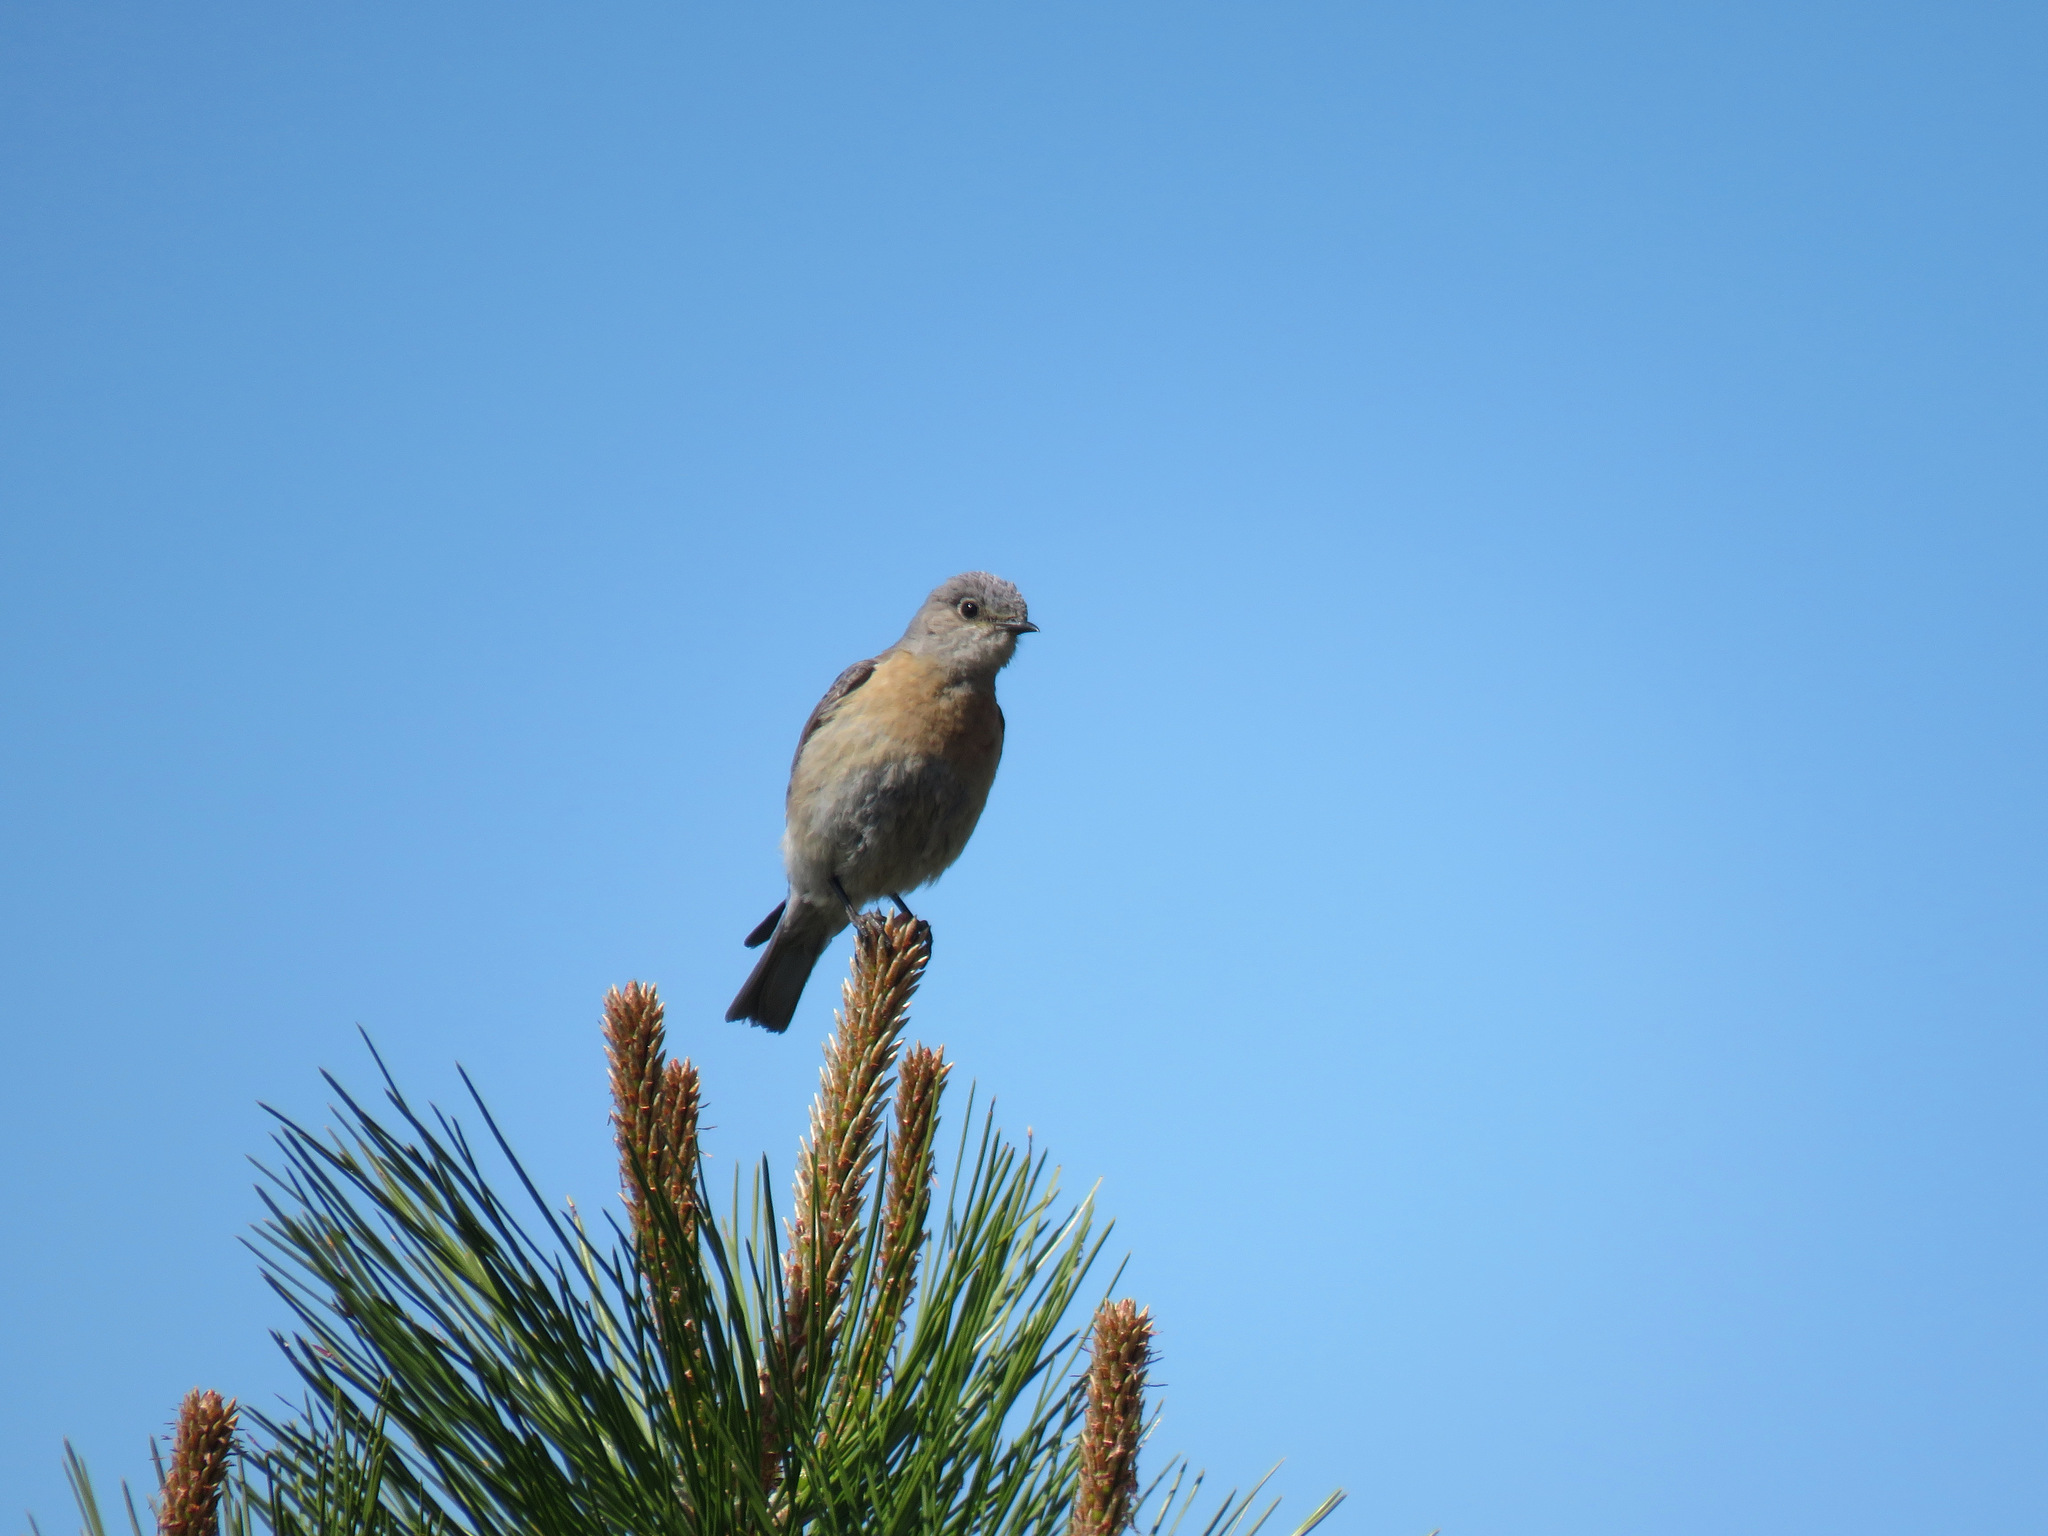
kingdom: Animalia
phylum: Chordata
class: Aves
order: Passeriformes
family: Turdidae
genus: Sialia
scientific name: Sialia mexicana
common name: Western bluebird
